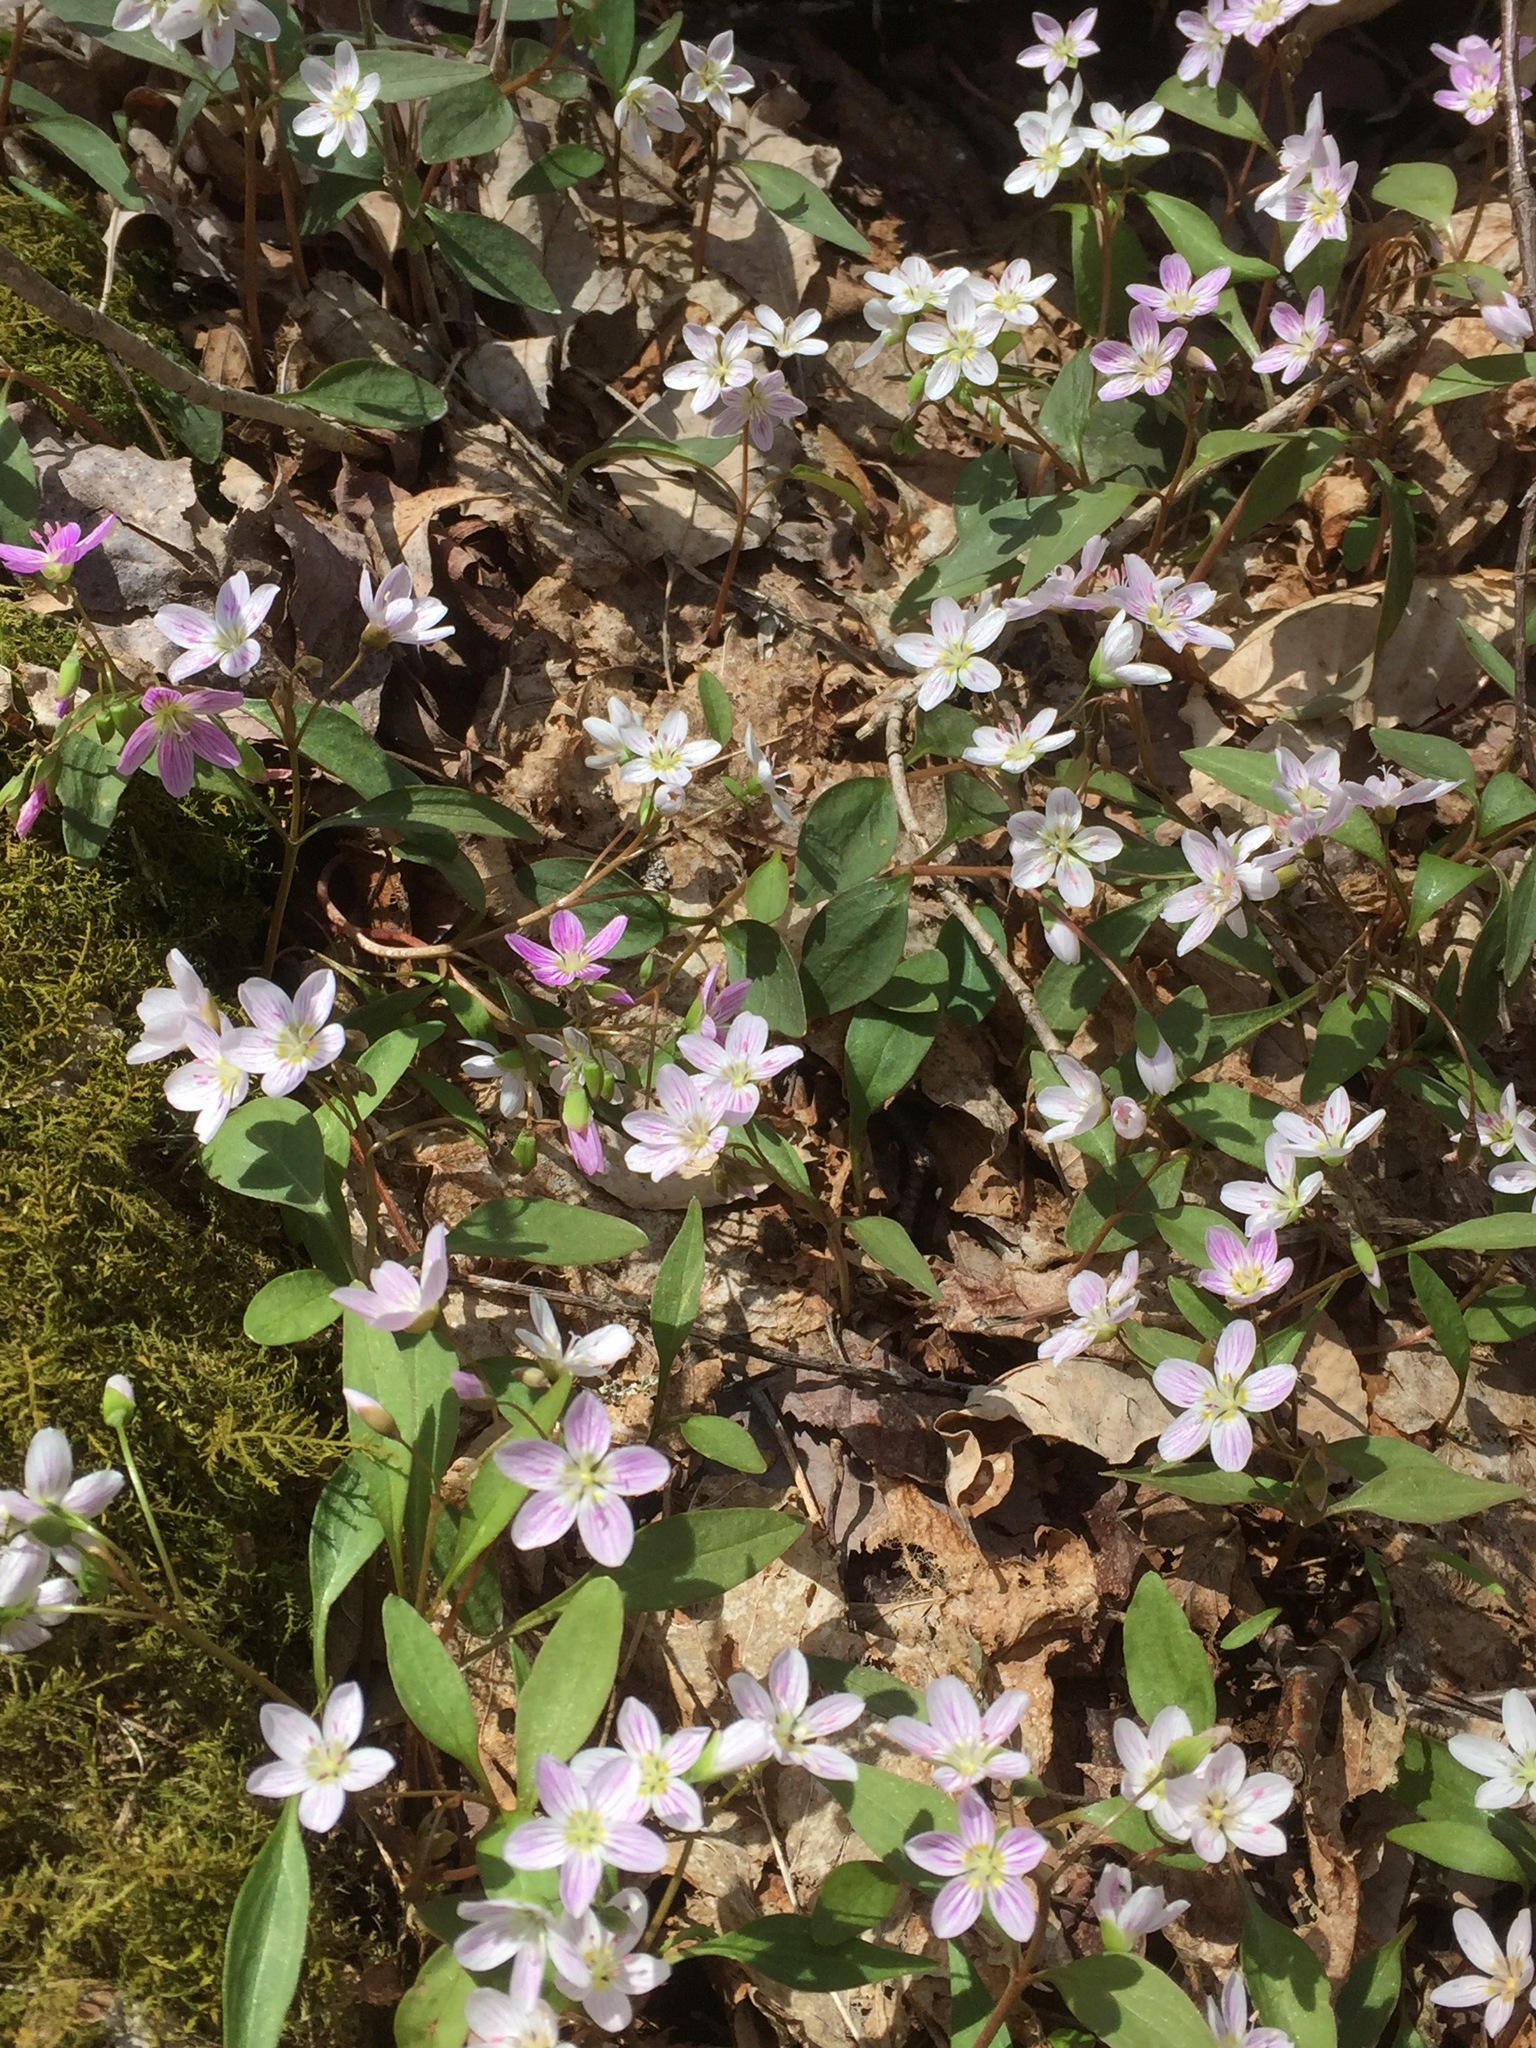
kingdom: Plantae
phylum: Tracheophyta
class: Magnoliopsida
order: Caryophyllales
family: Montiaceae
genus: Claytonia
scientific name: Claytonia caroliniana
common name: Carolina spring beauty
